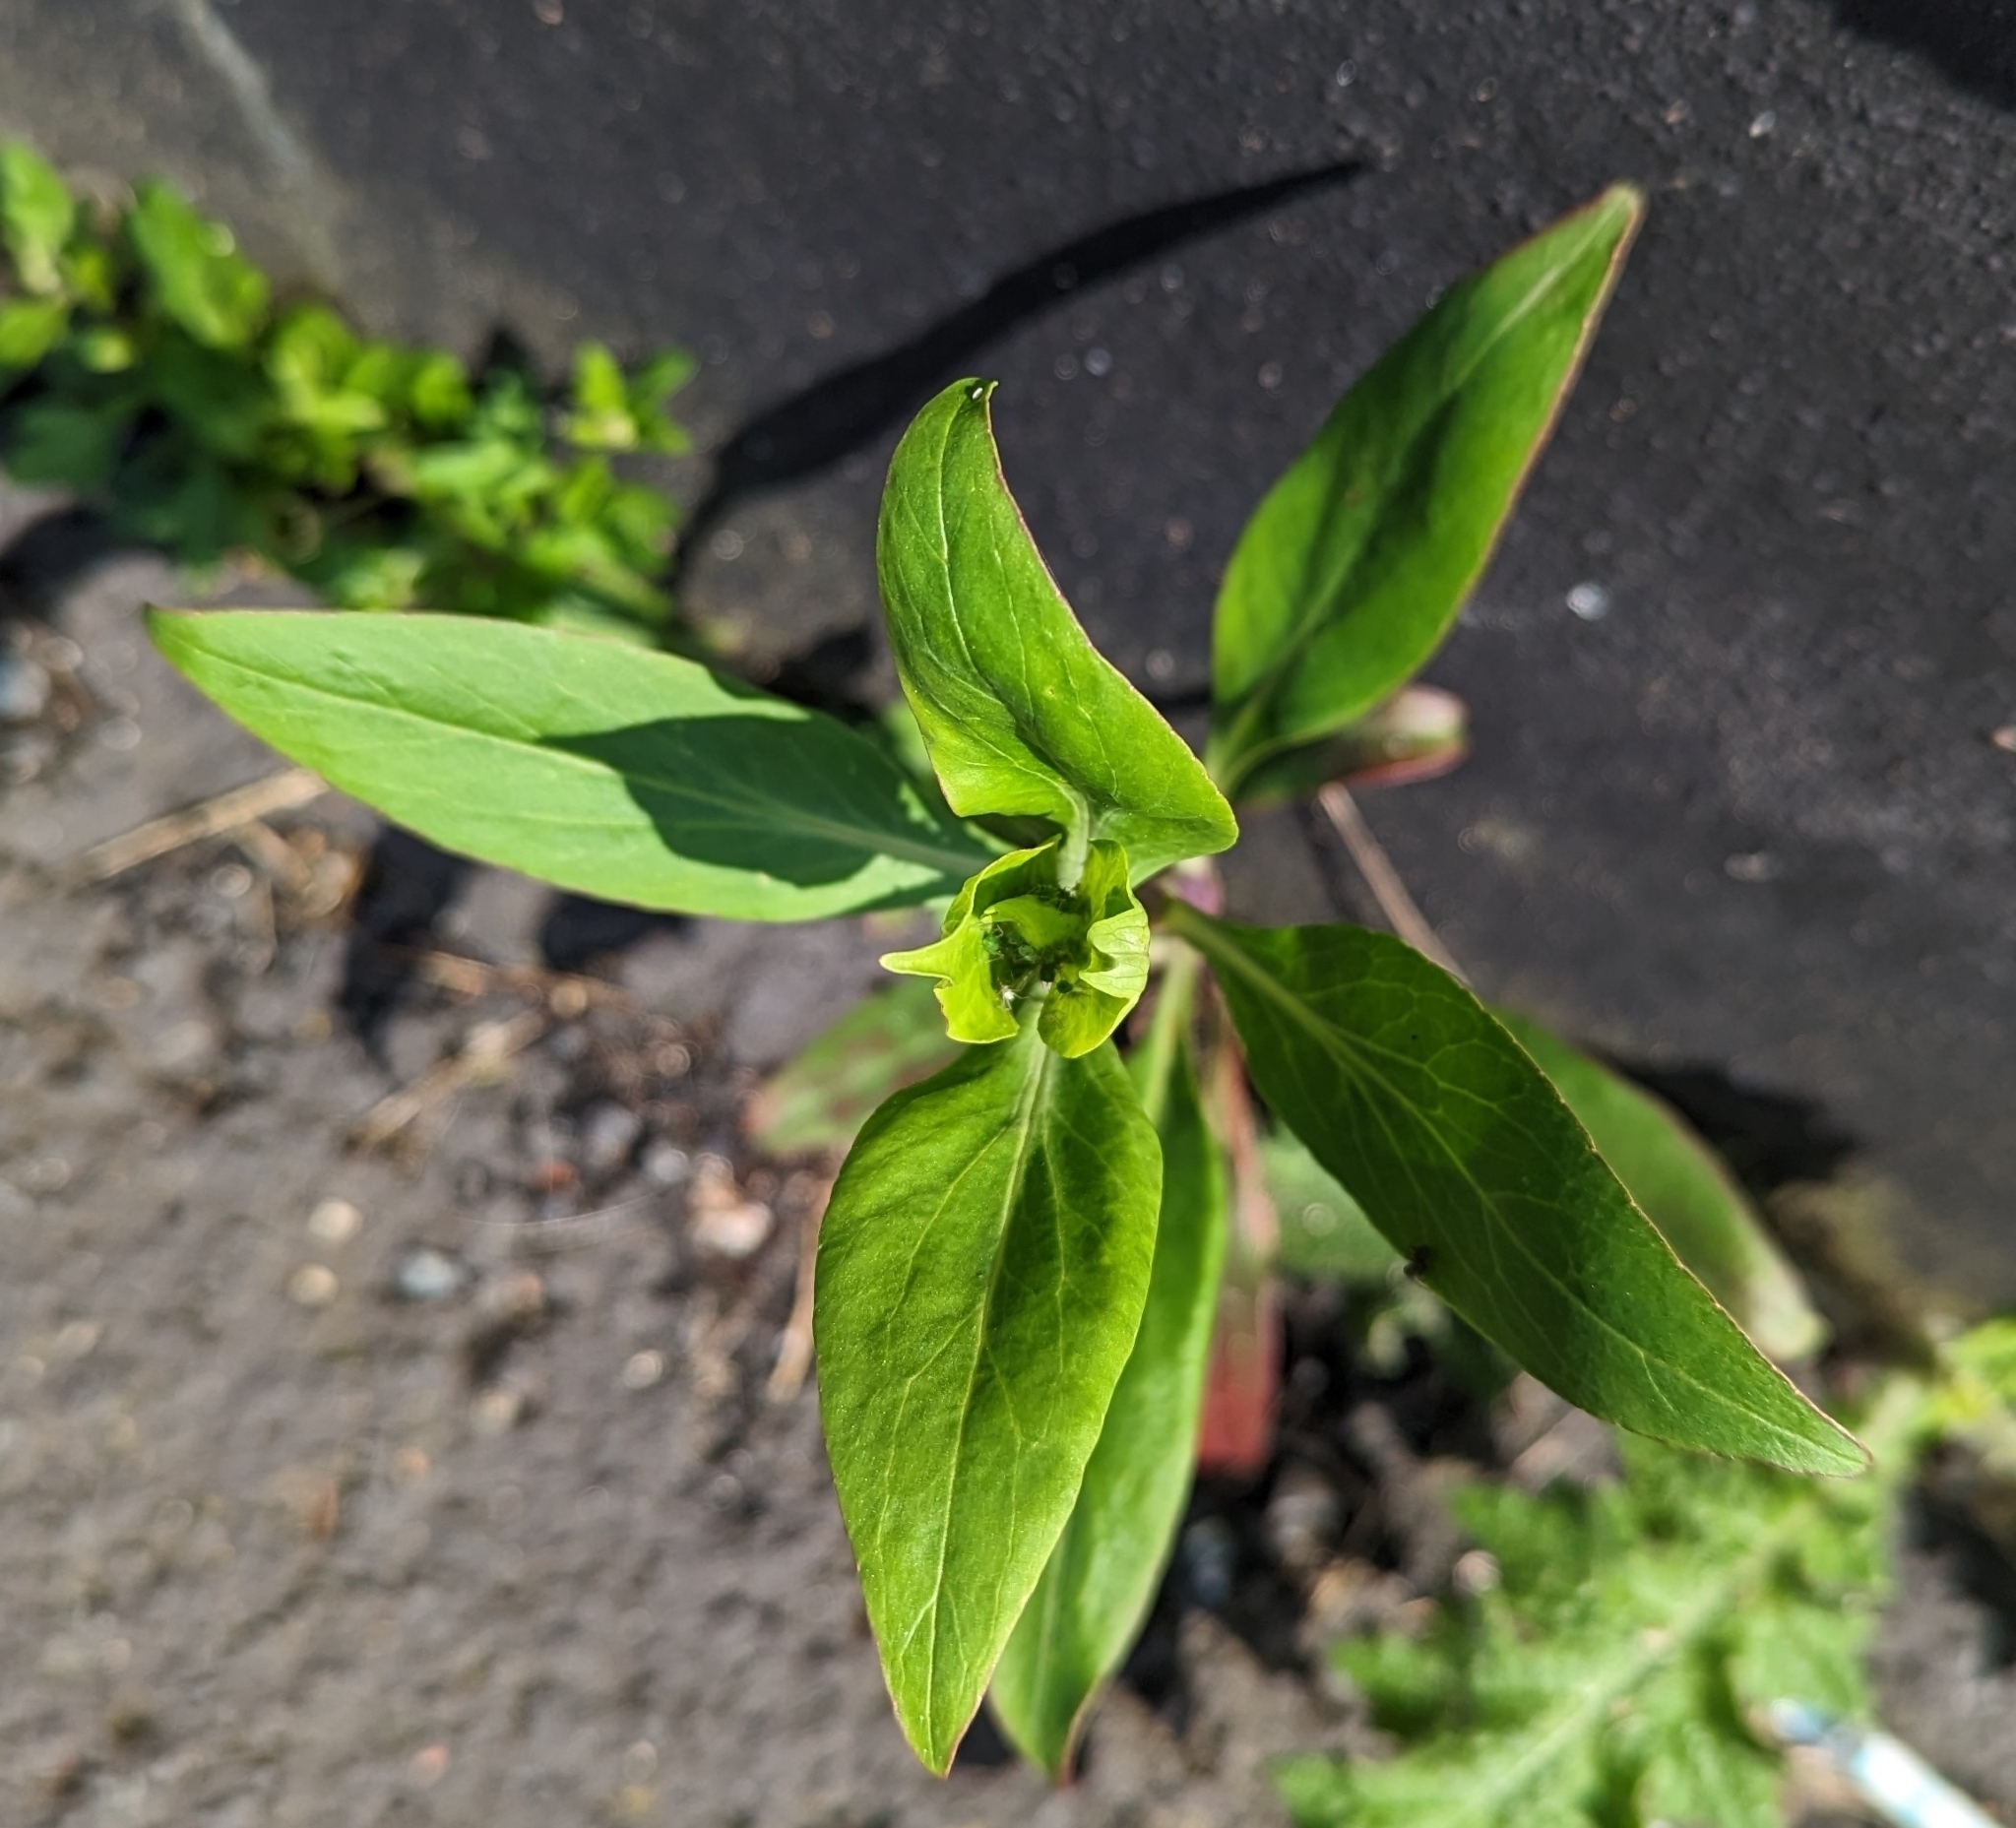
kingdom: Plantae
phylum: Tracheophyta
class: Magnoliopsida
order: Dipsacales
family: Caprifoliaceae
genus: Centranthus
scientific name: Centranthus ruber
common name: Red valerian
